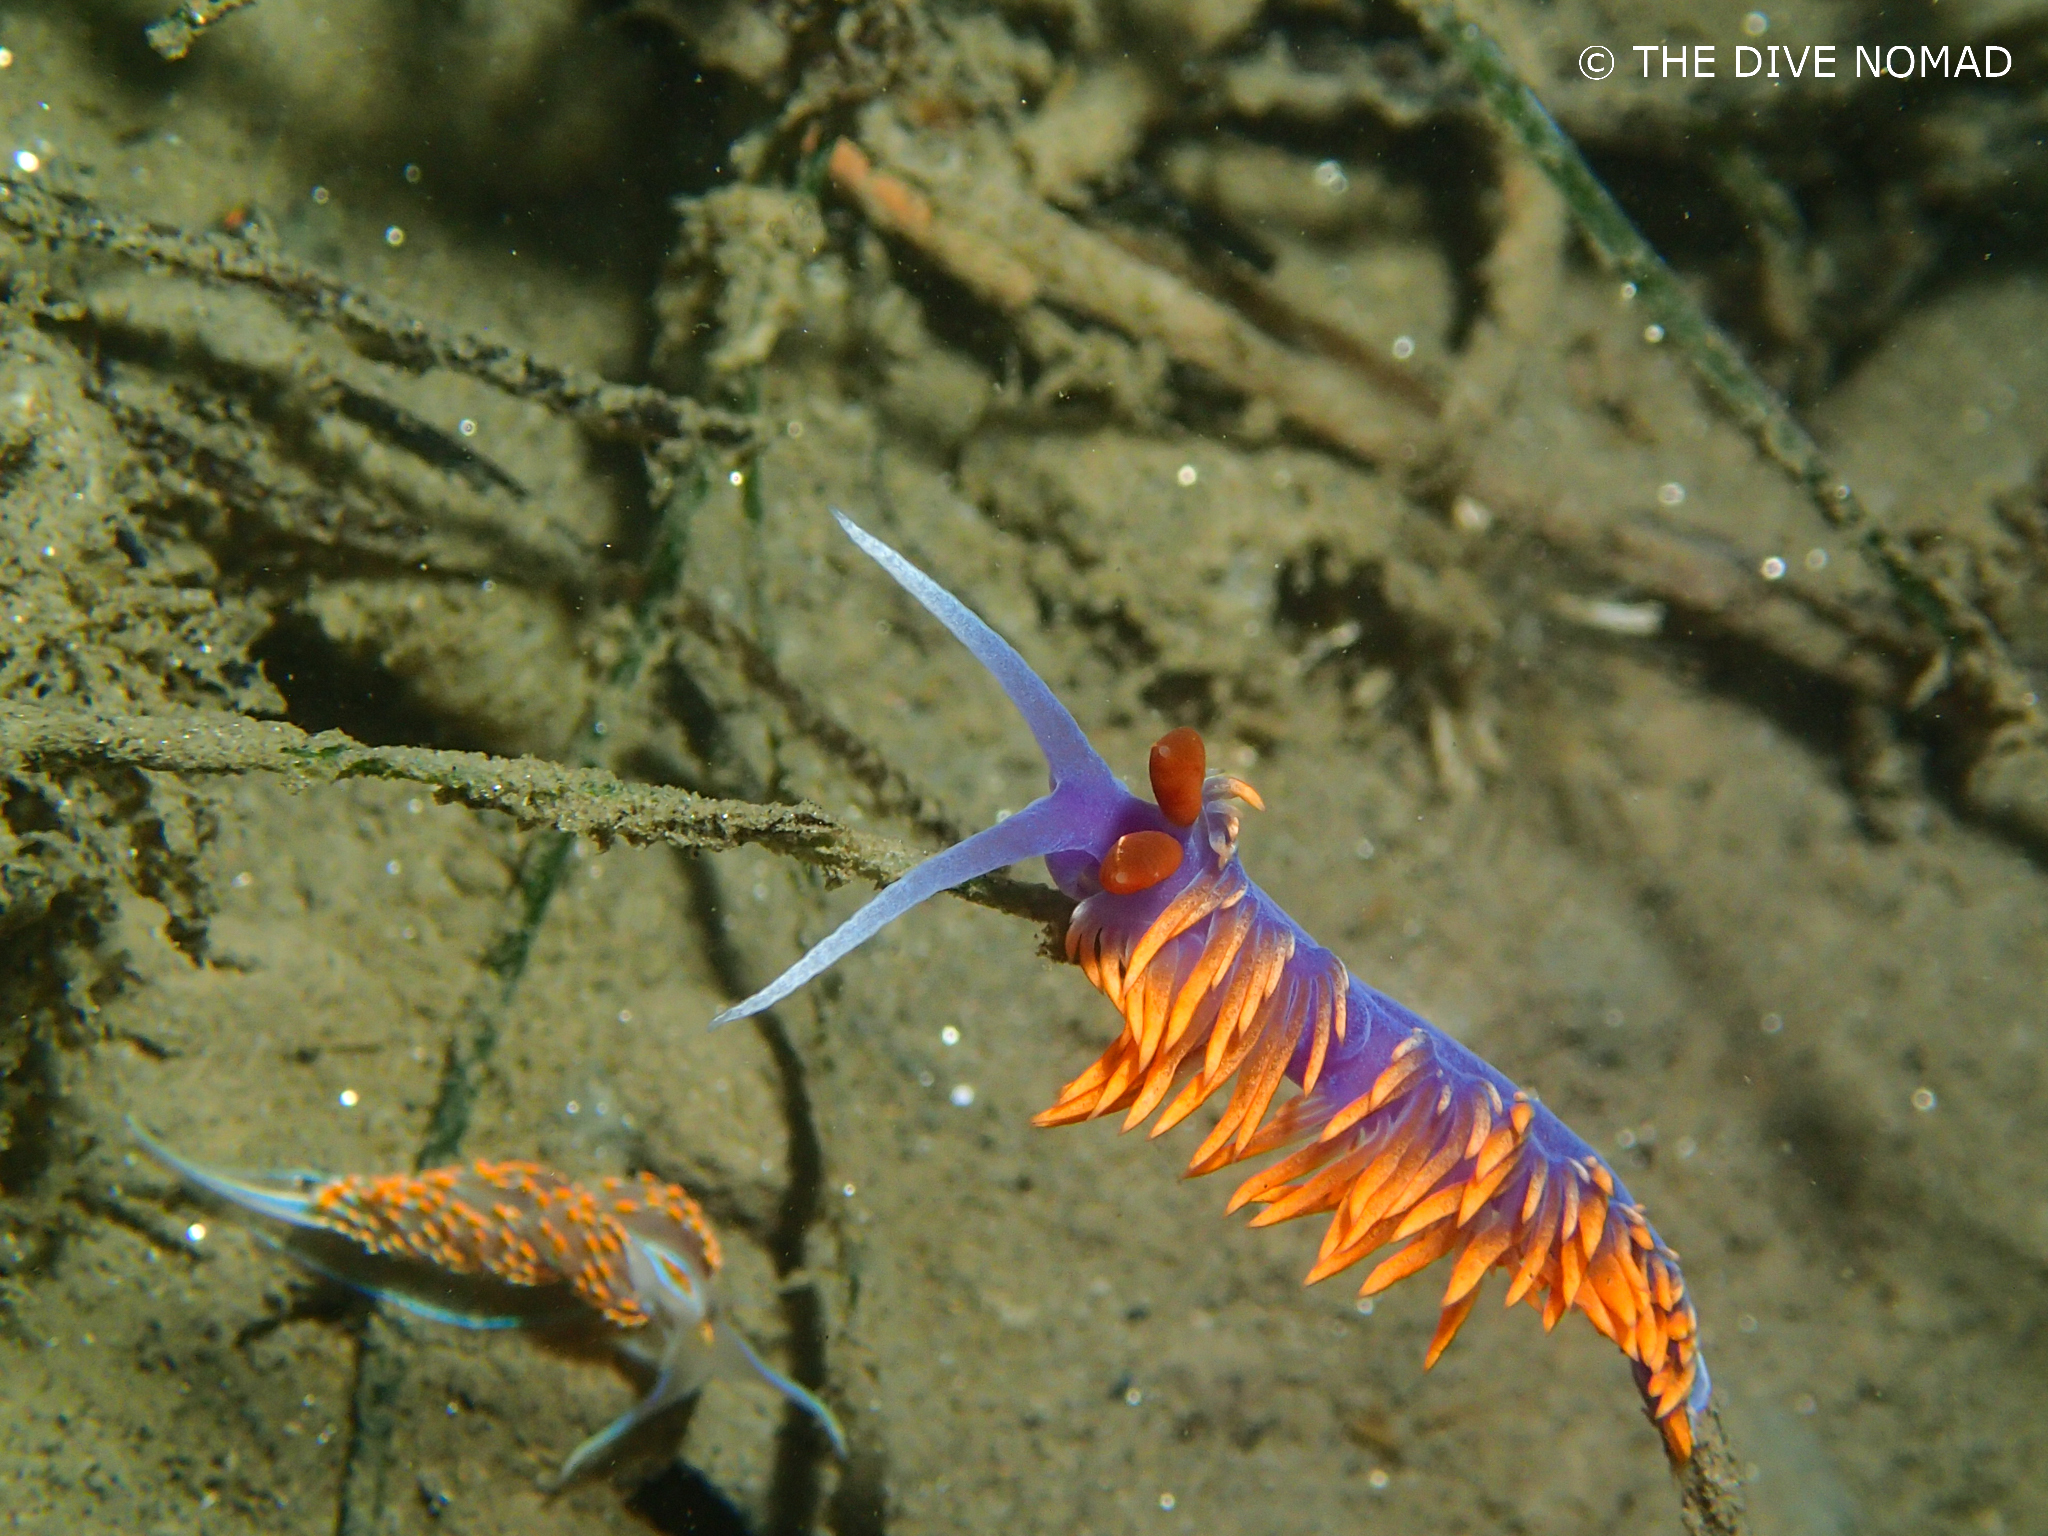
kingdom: Animalia
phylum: Mollusca
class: Gastropoda
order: Nudibranchia
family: Flabellinopsidae
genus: Flabellinopsis
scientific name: Flabellinopsis iodinea
